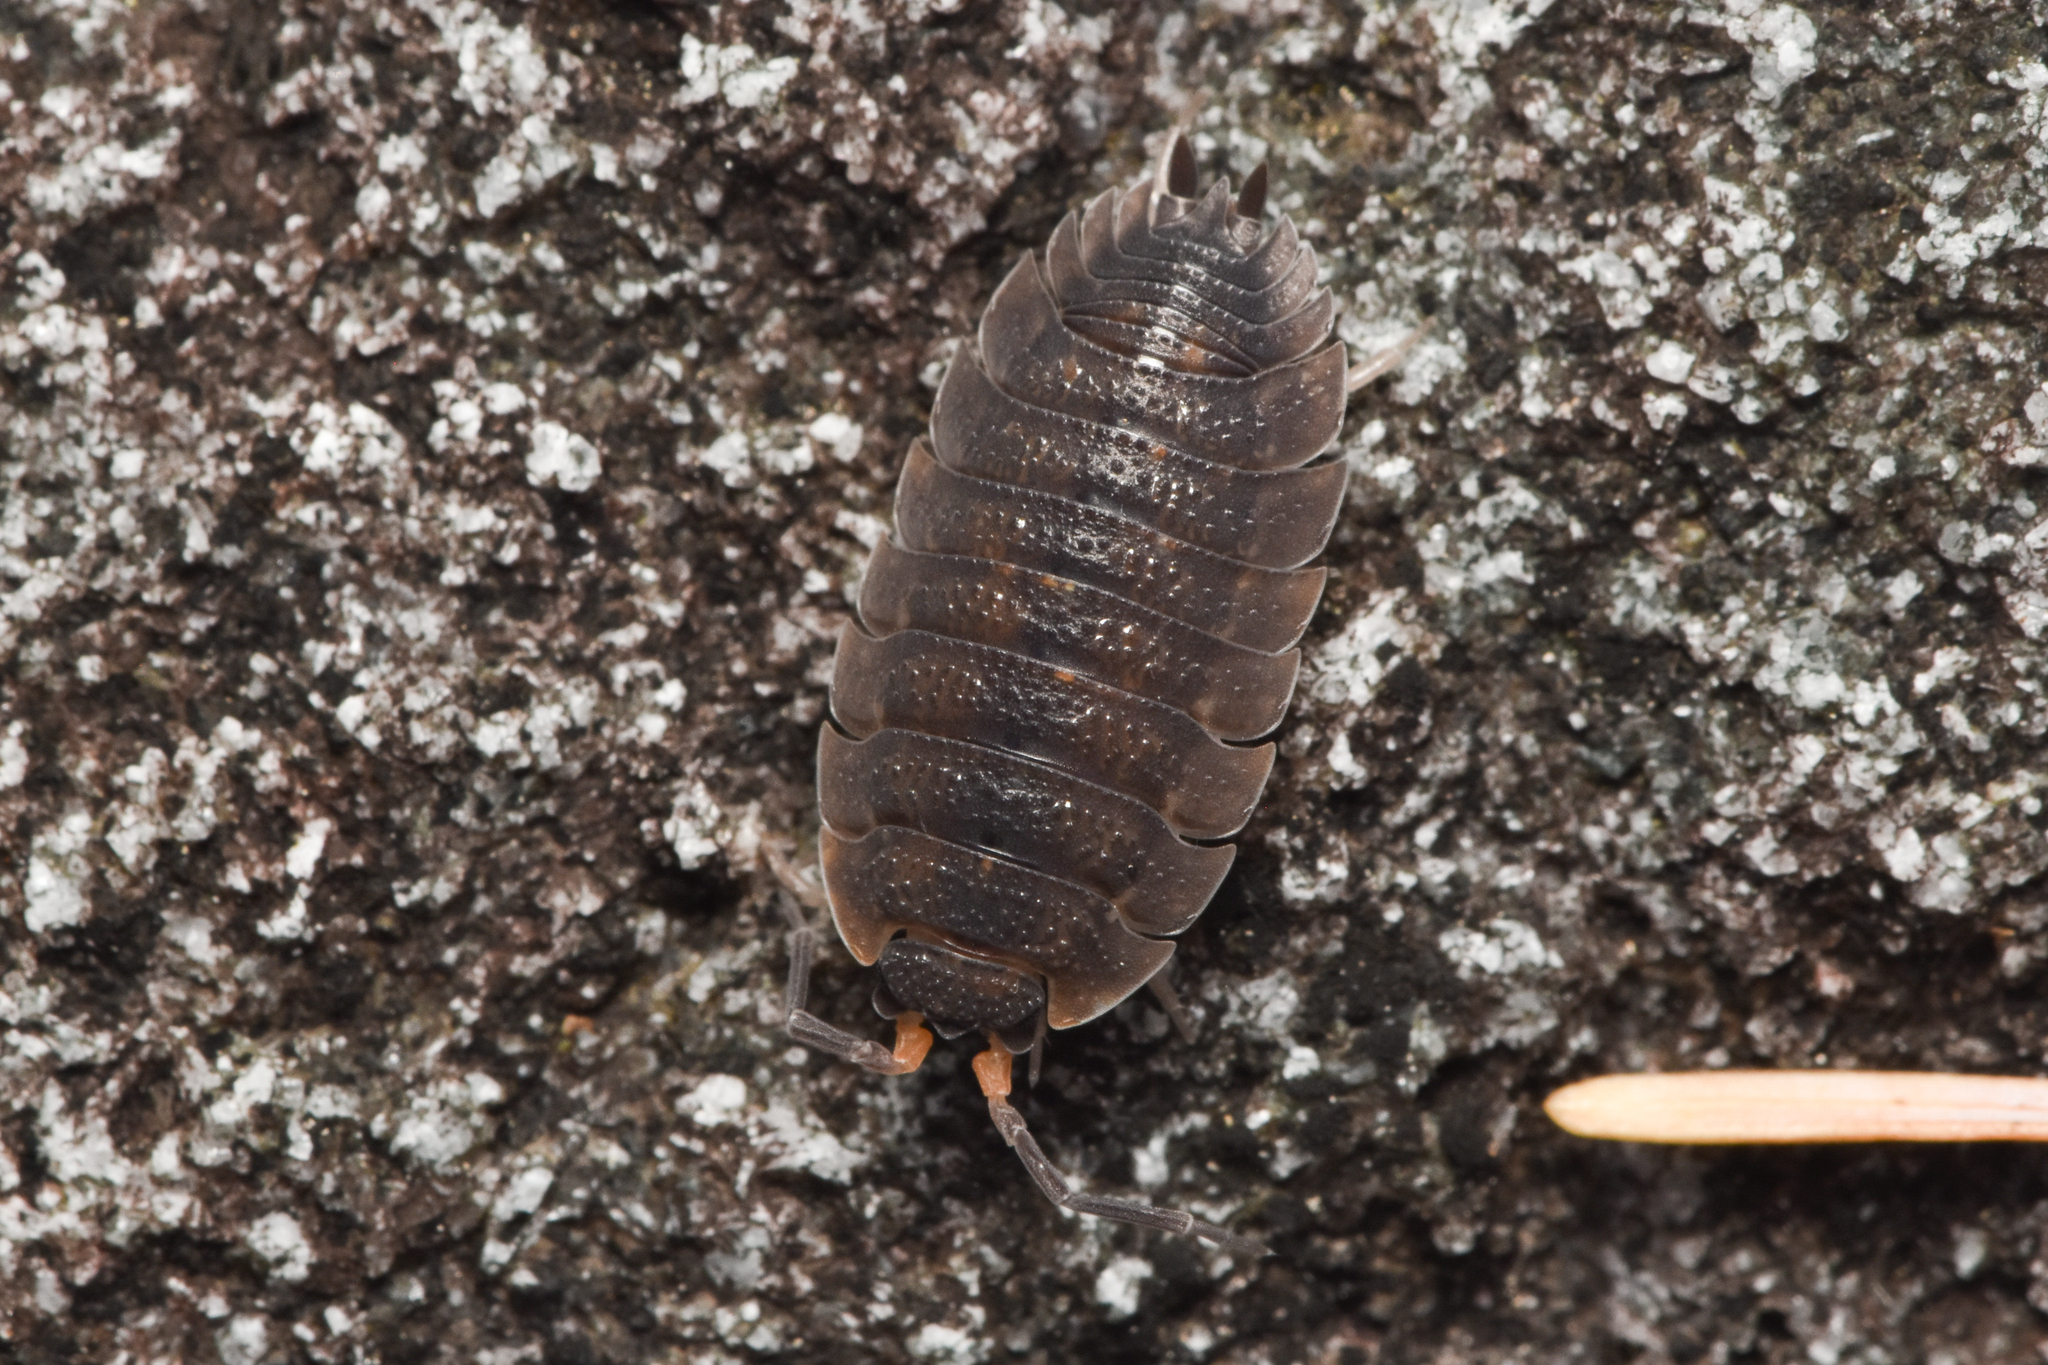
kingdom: Animalia
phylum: Arthropoda
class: Malacostraca
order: Isopoda
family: Porcellionidae
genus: Porcellio
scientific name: Porcellio scaber
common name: Common rough woodlouse
